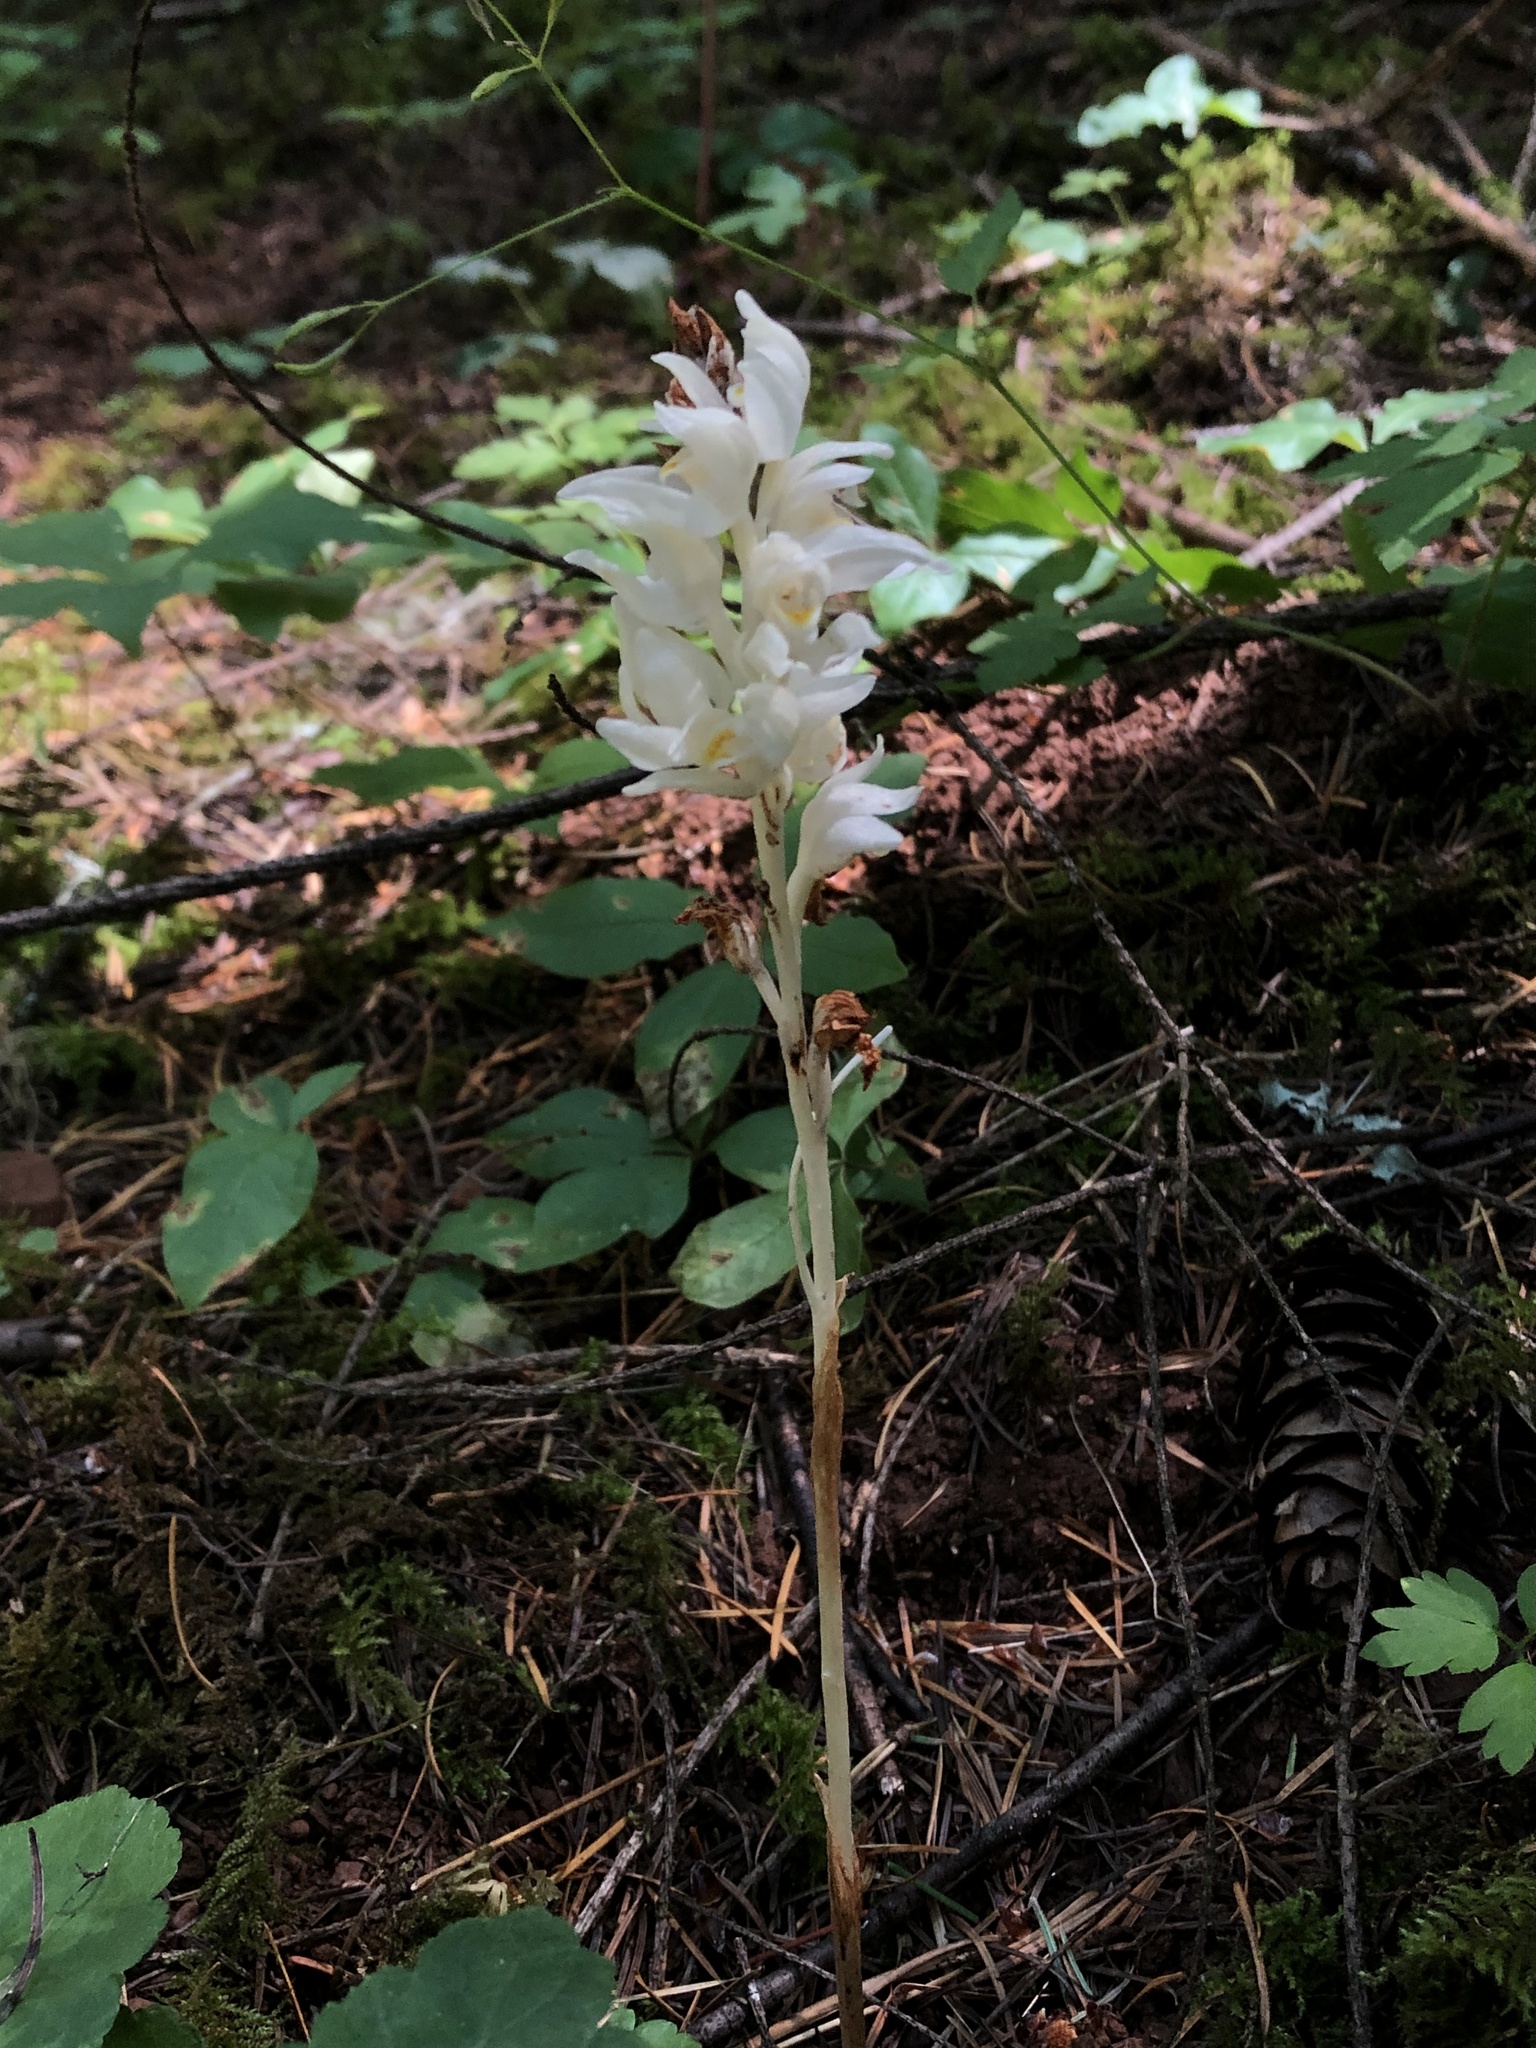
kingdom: Plantae
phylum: Tracheophyta
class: Liliopsida
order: Asparagales
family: Orchidaceae
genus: Cephalanthera
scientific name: Cephalanthera austiniae
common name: Phantom orchid
